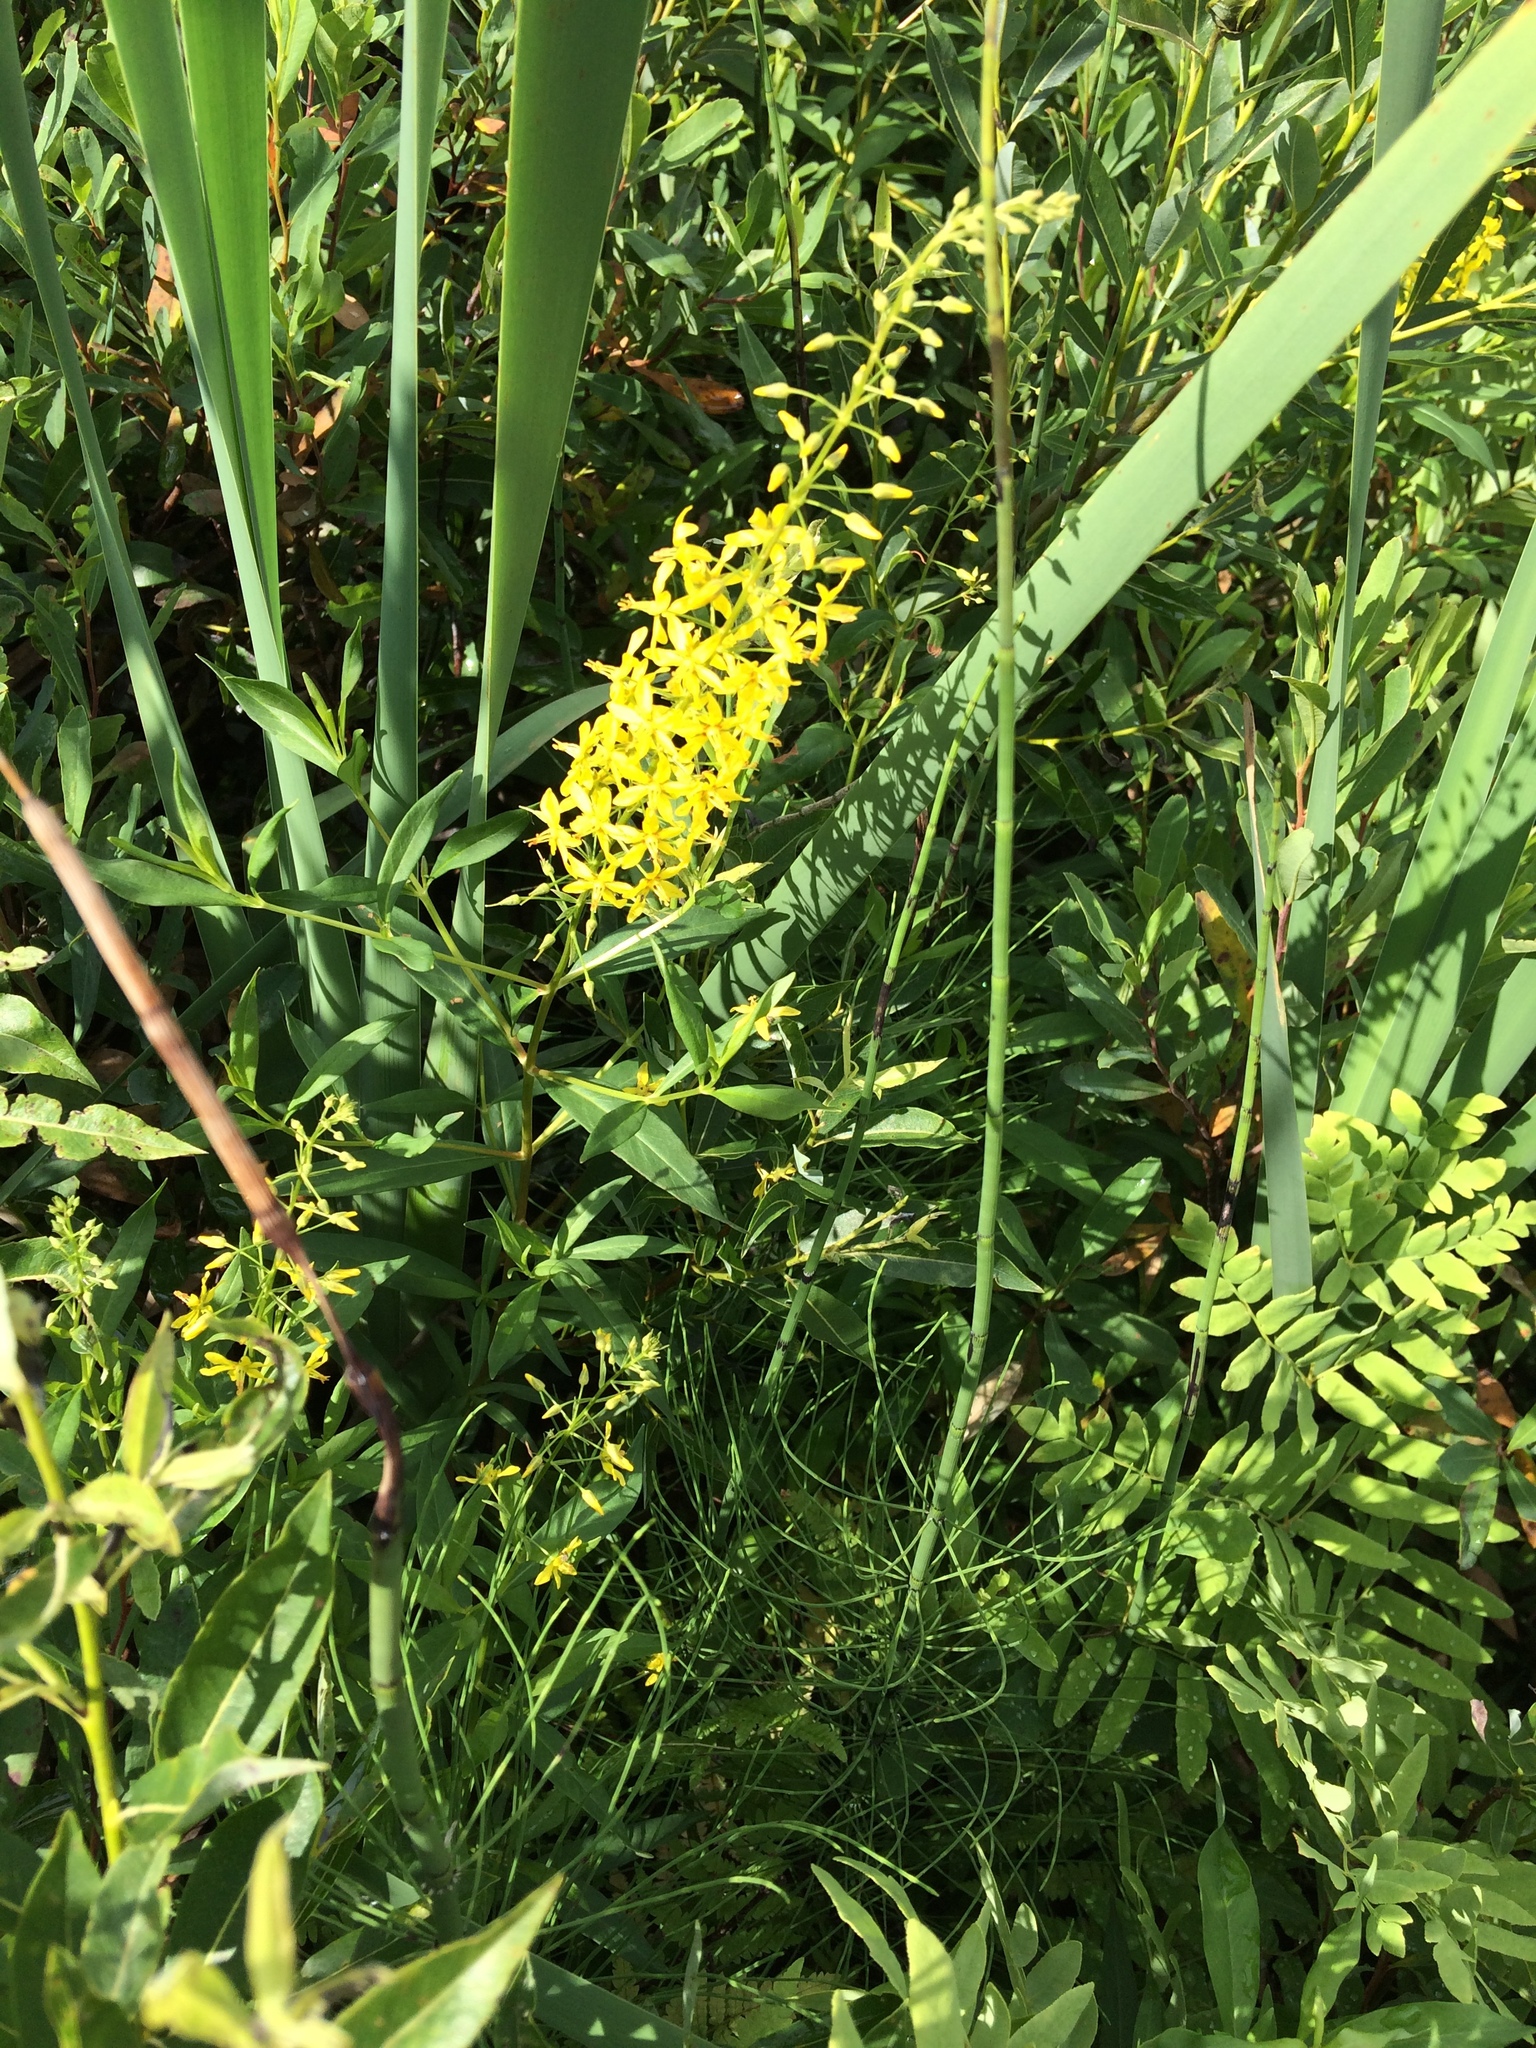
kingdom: Plantae
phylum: Tracheophyta
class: Magnoliopsida
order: Ericales
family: Primulaceae
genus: Lysimachia
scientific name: Lysimachia terrestris
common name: Lake loosestrife
